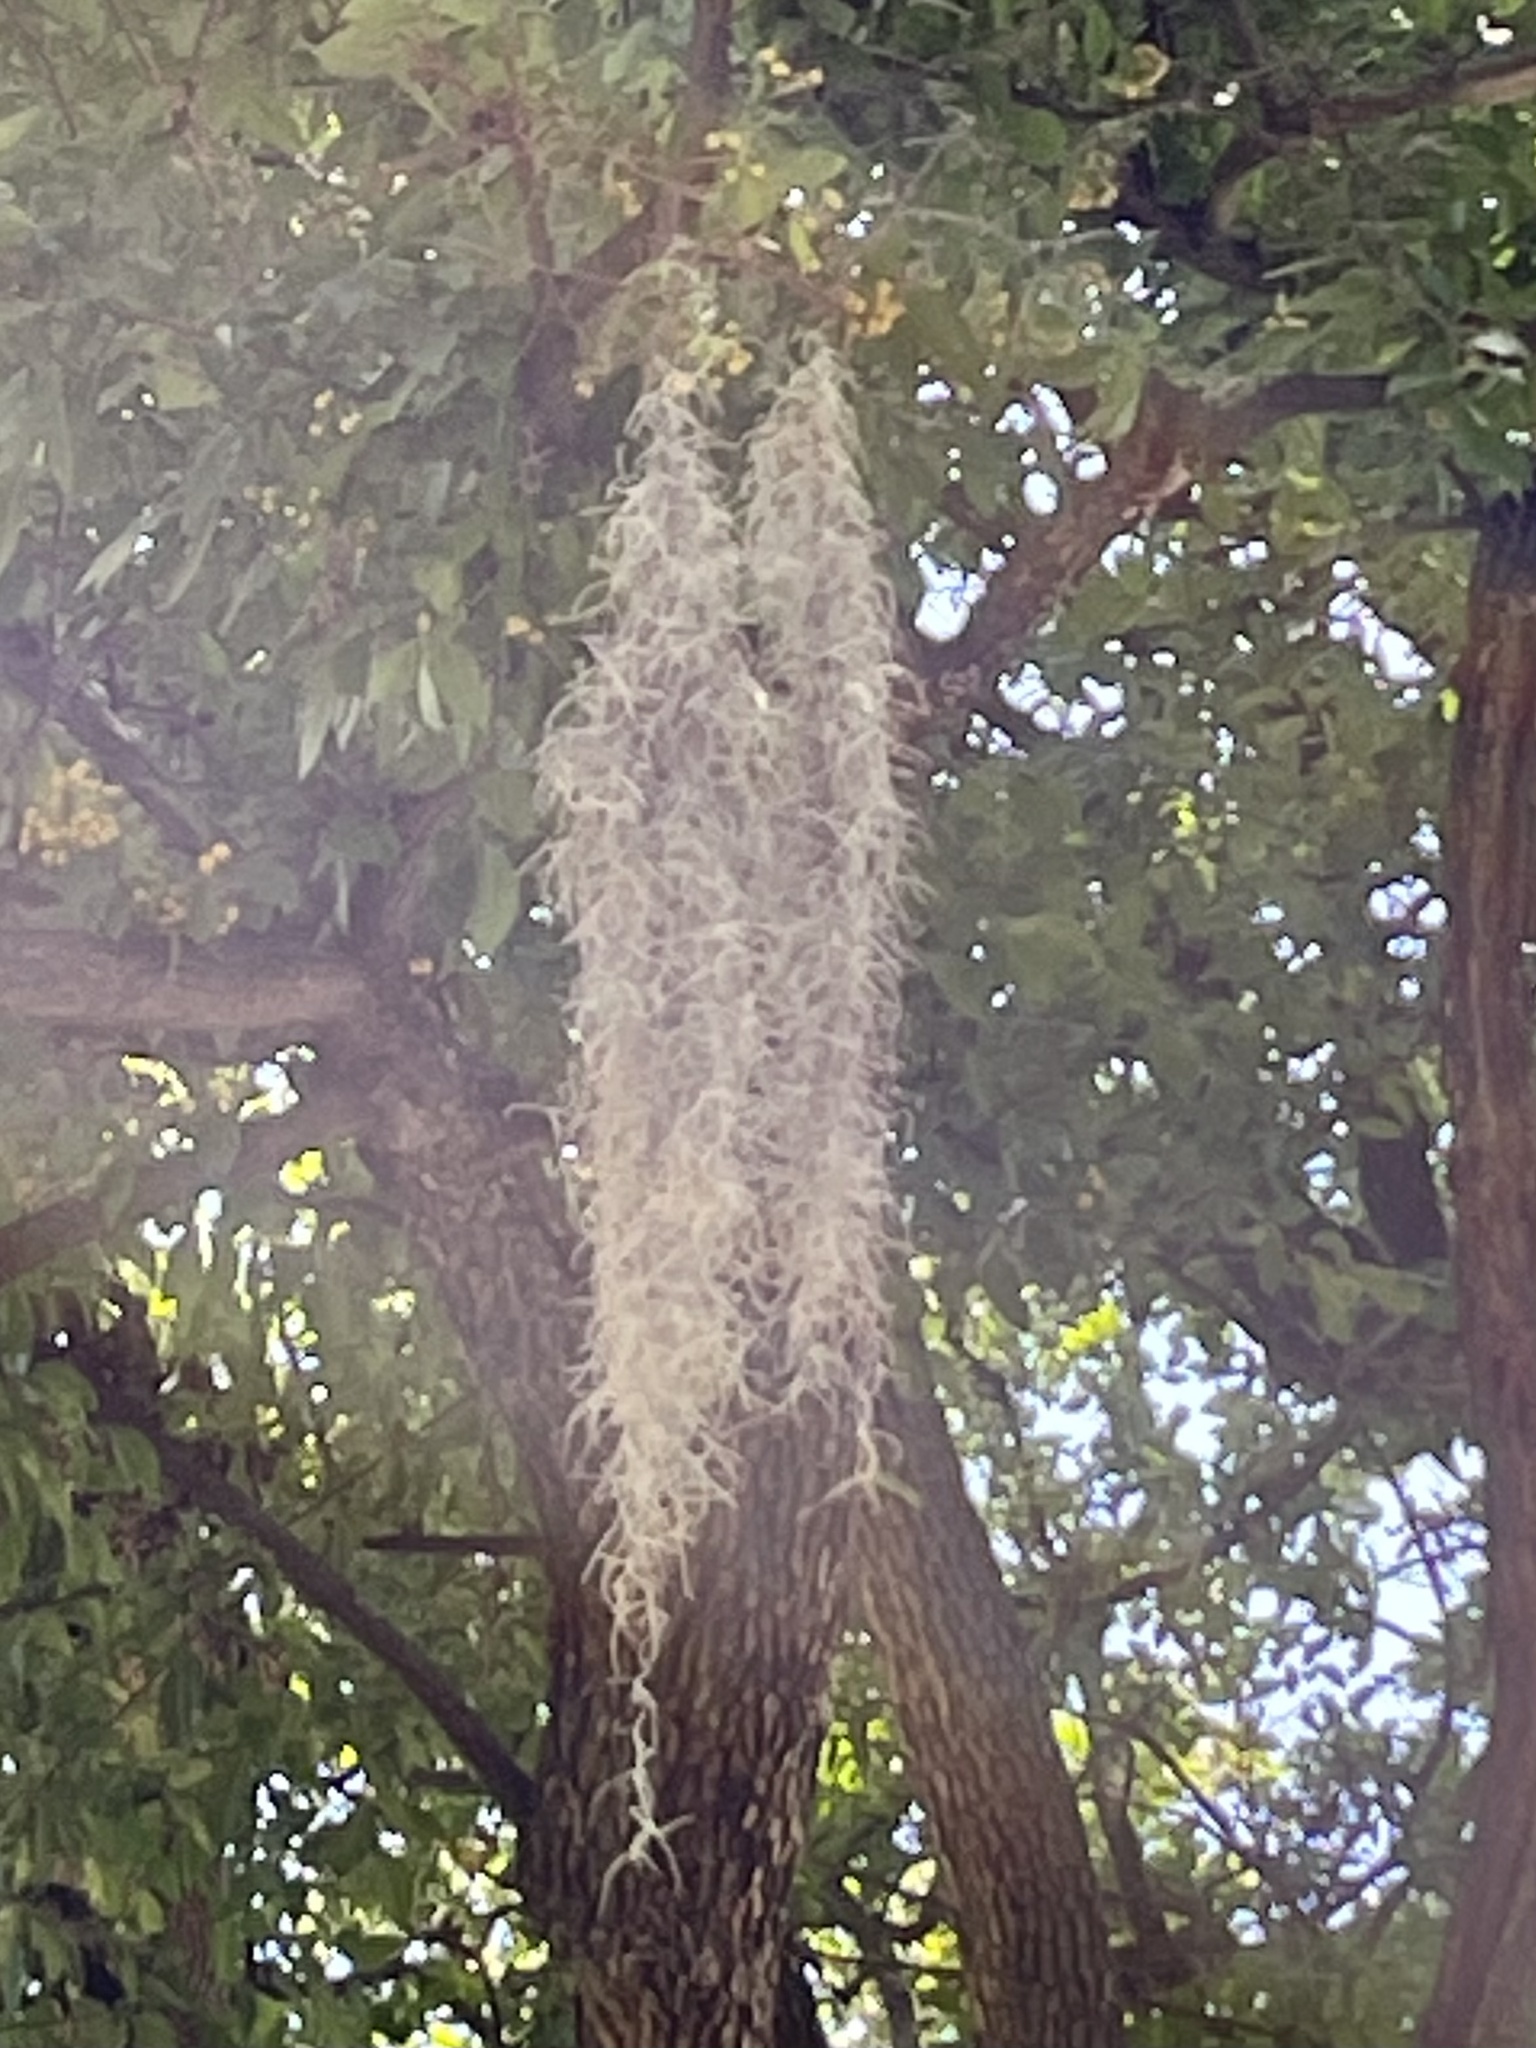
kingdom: Plantae
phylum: Tracheophyta
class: Liliopsida
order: Poales
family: Bromeliaceae
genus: Tillandsia
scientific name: Tillandsia usneoides
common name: Spanish moss
